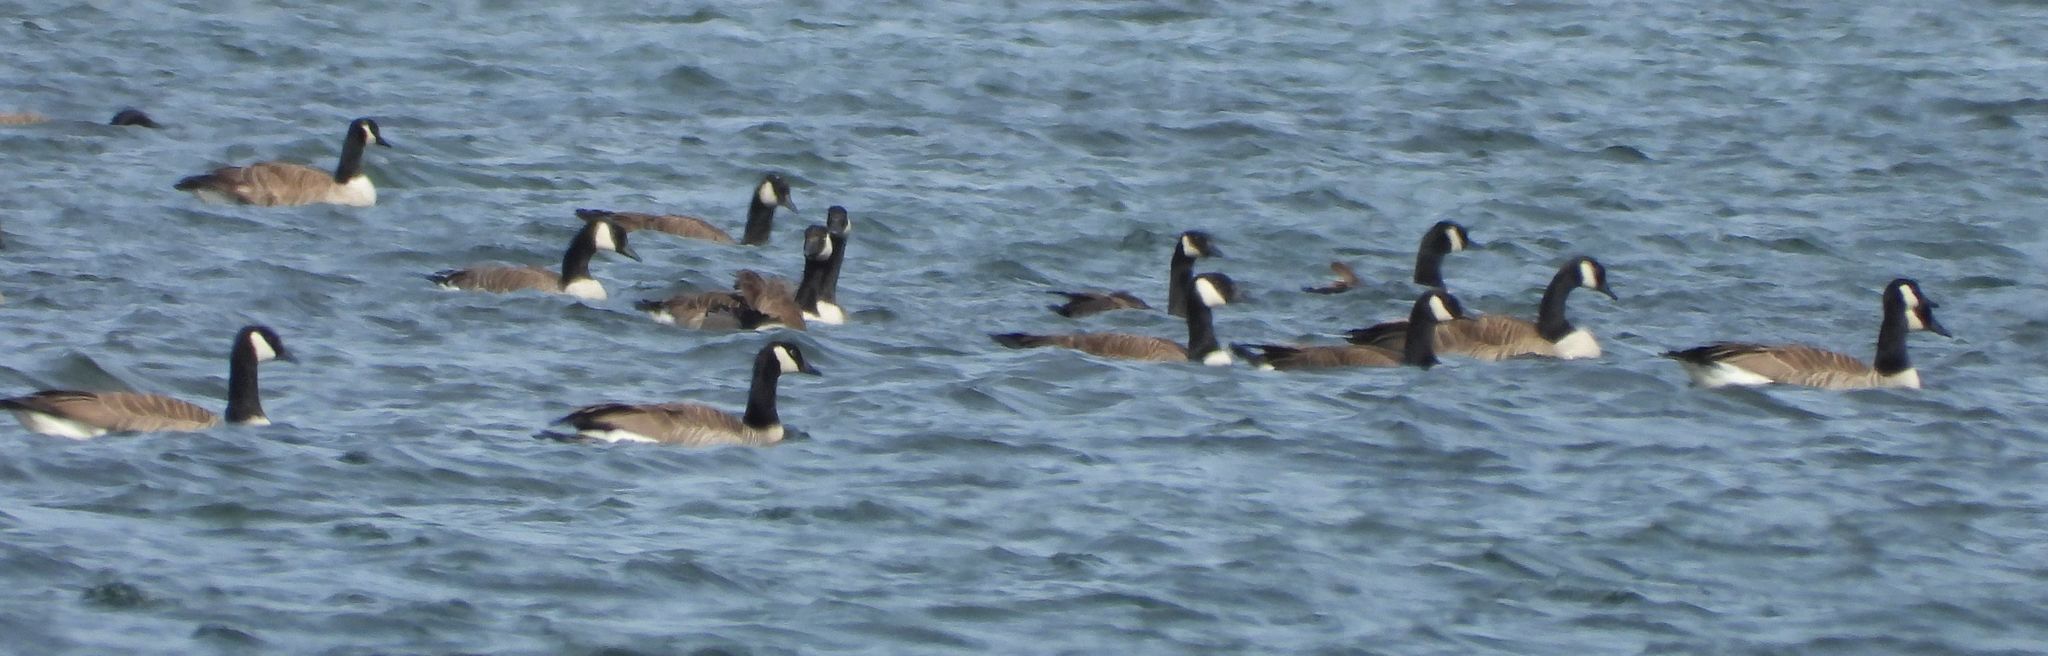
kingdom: Animalia
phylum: Chordata
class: Aves
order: Anseriformes
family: Anatidae
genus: Branta
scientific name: Branta canadensis
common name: Canada goose
